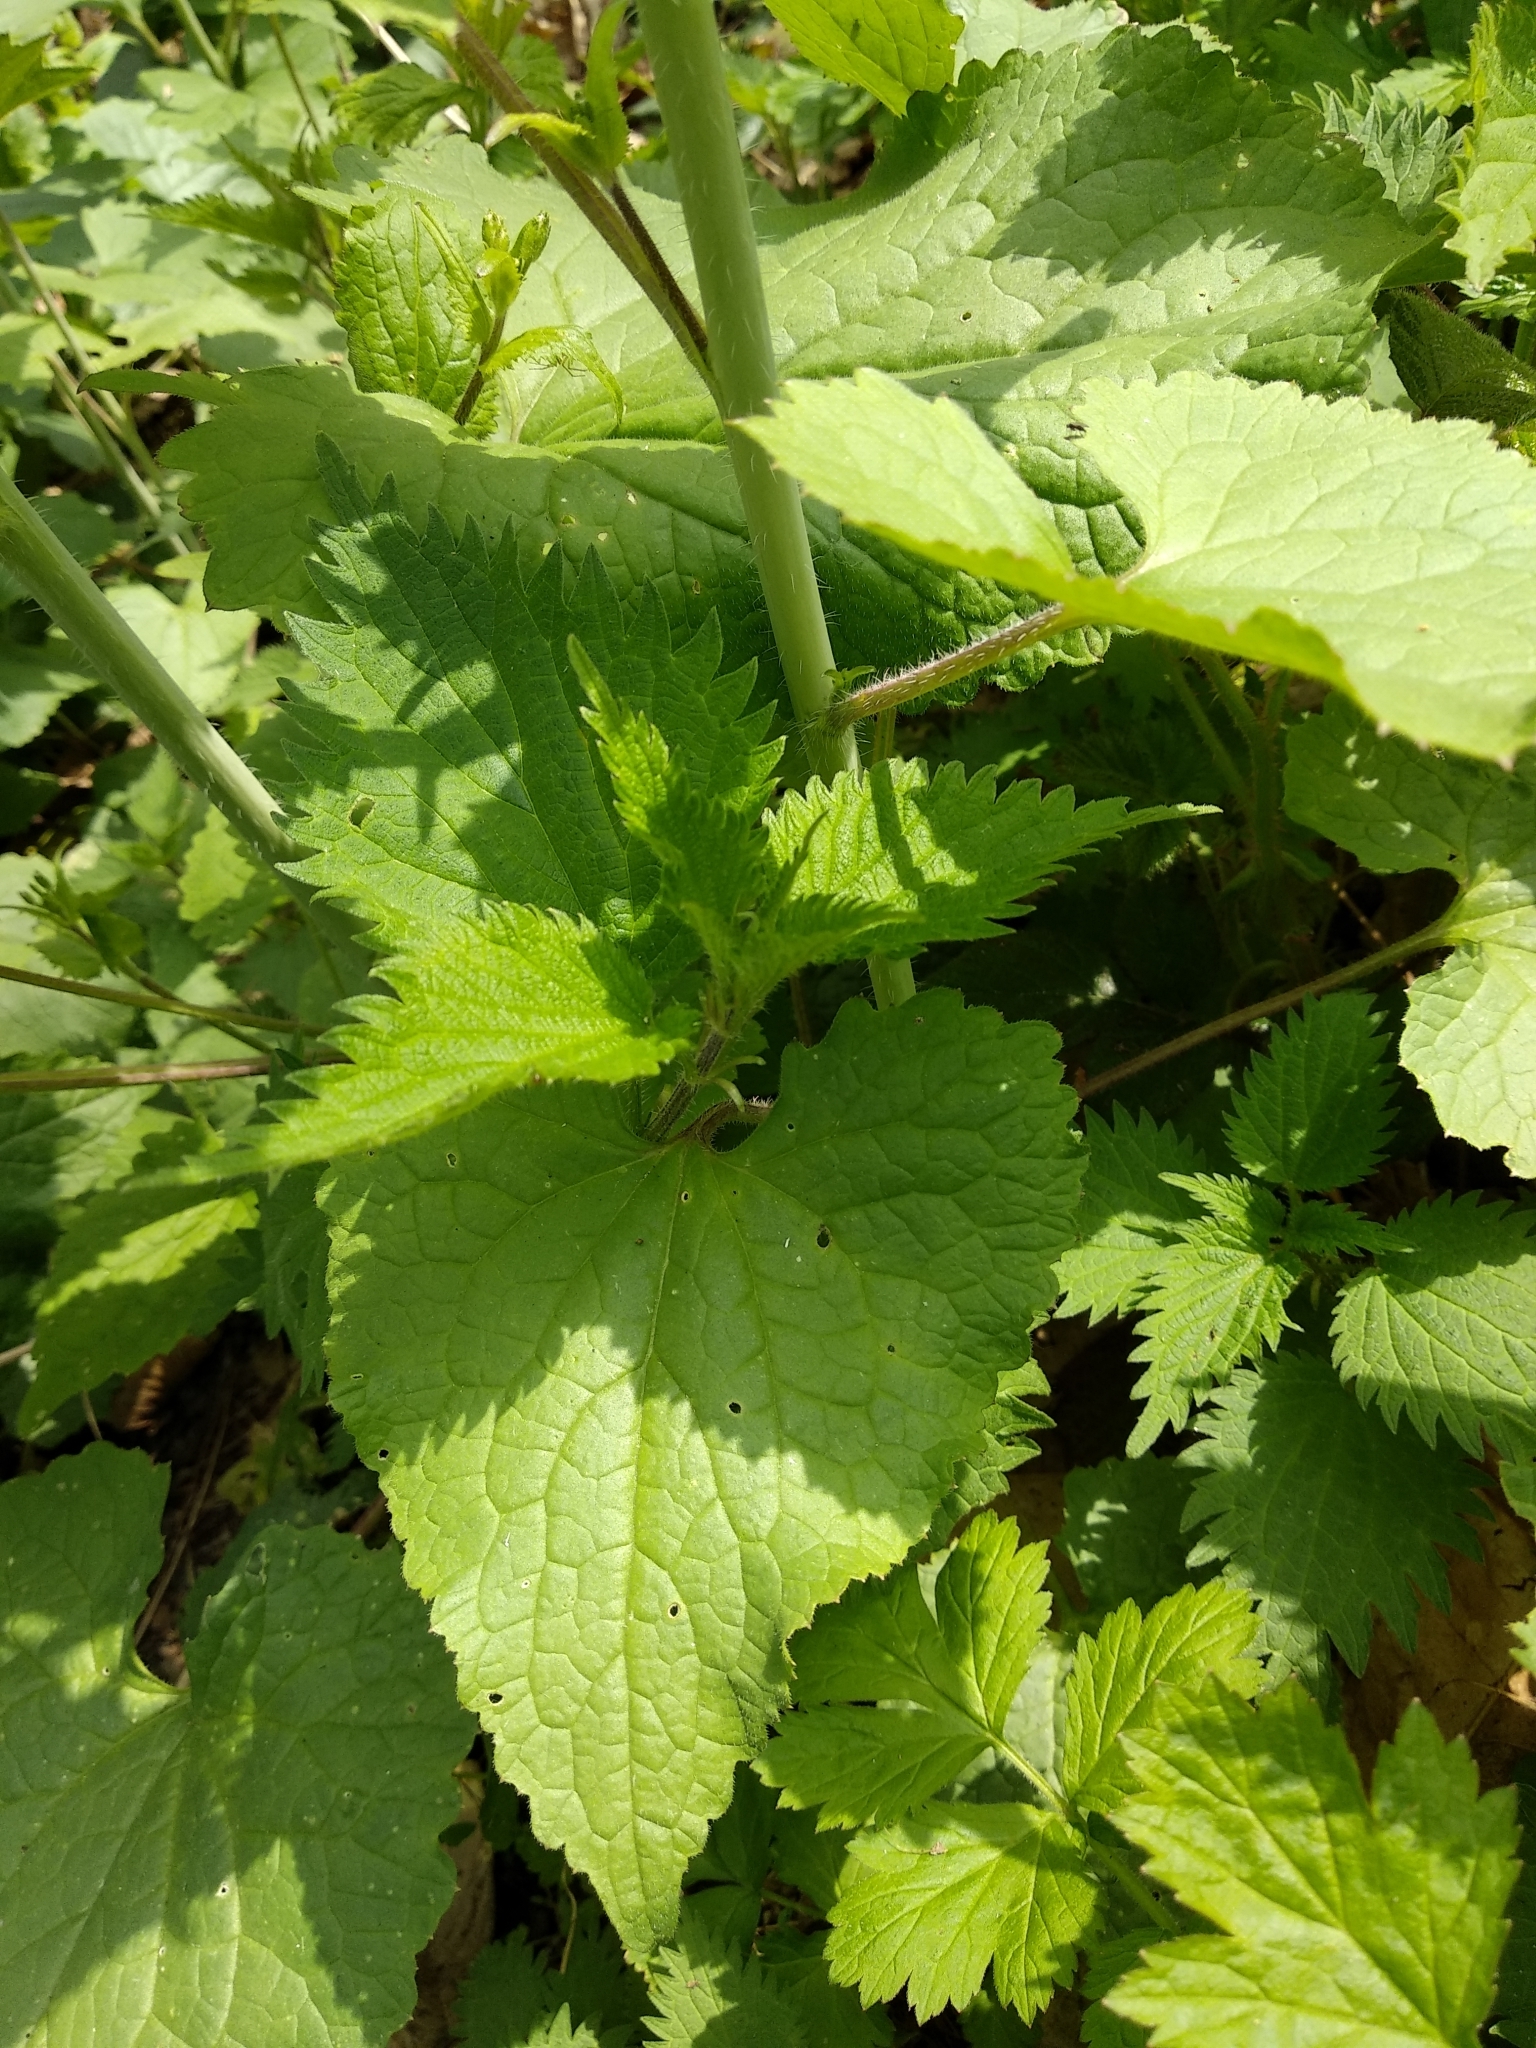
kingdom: Plantae
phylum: Tracheophyta
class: Magnoliopsida
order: Brassicales
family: Brassicaceae
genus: Lunaria
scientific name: Lunaria annua
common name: Honesty
